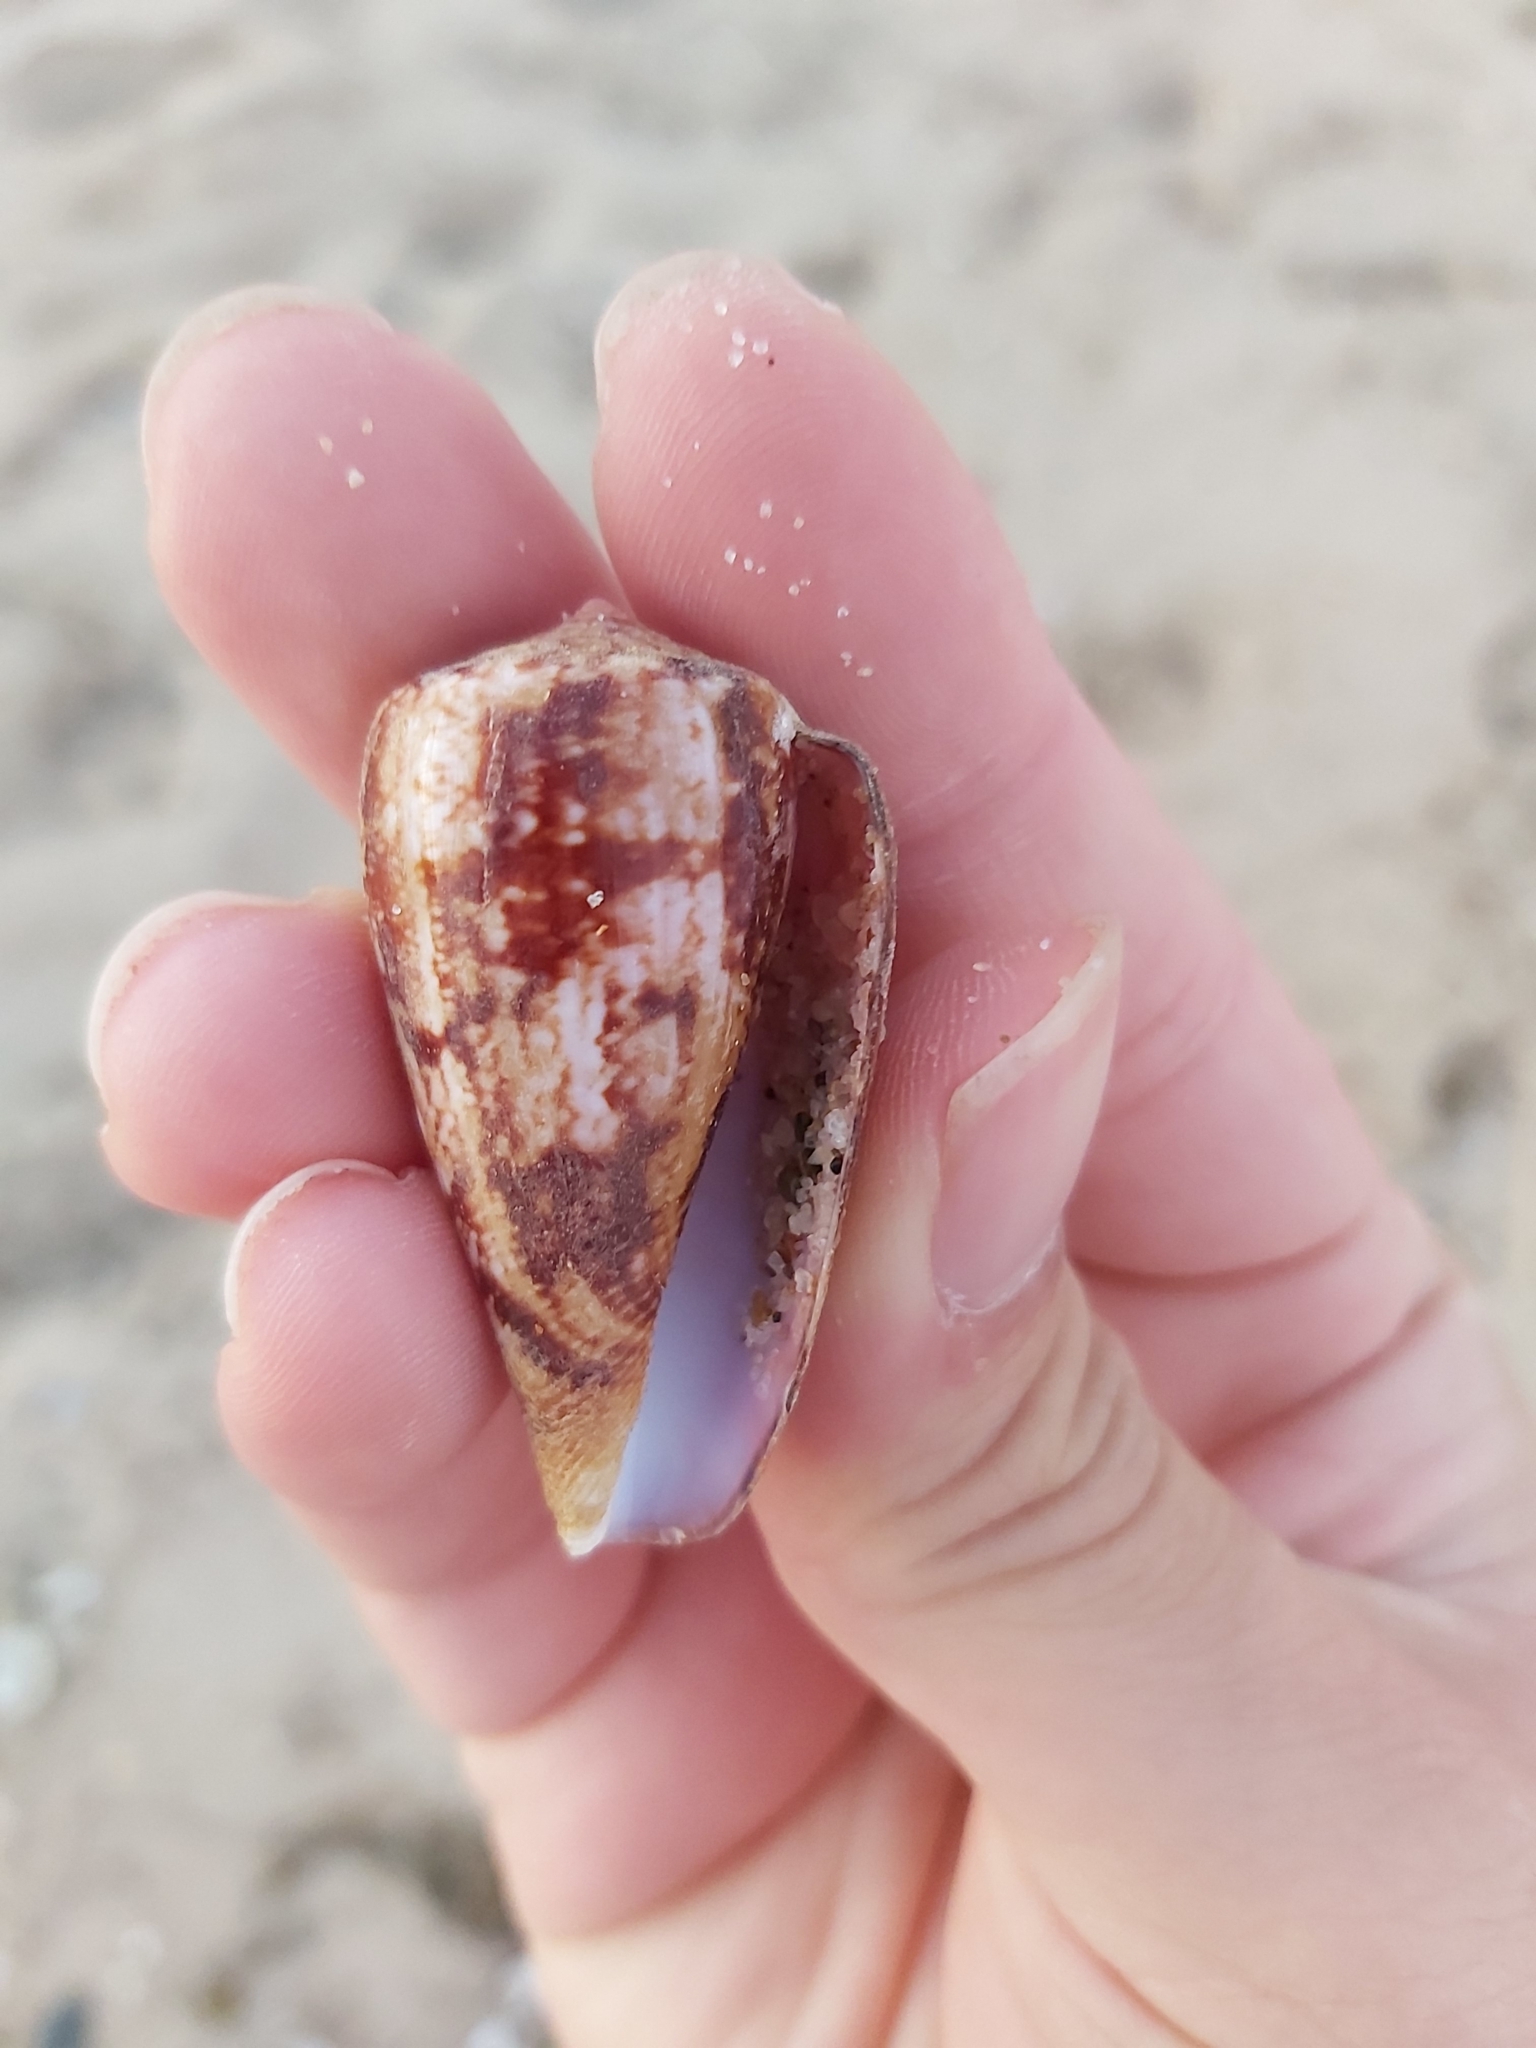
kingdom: Animalia
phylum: Mollusca
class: Gastropoda
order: Neogastropoda
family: Conidae
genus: Conus
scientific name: Conus anemone
